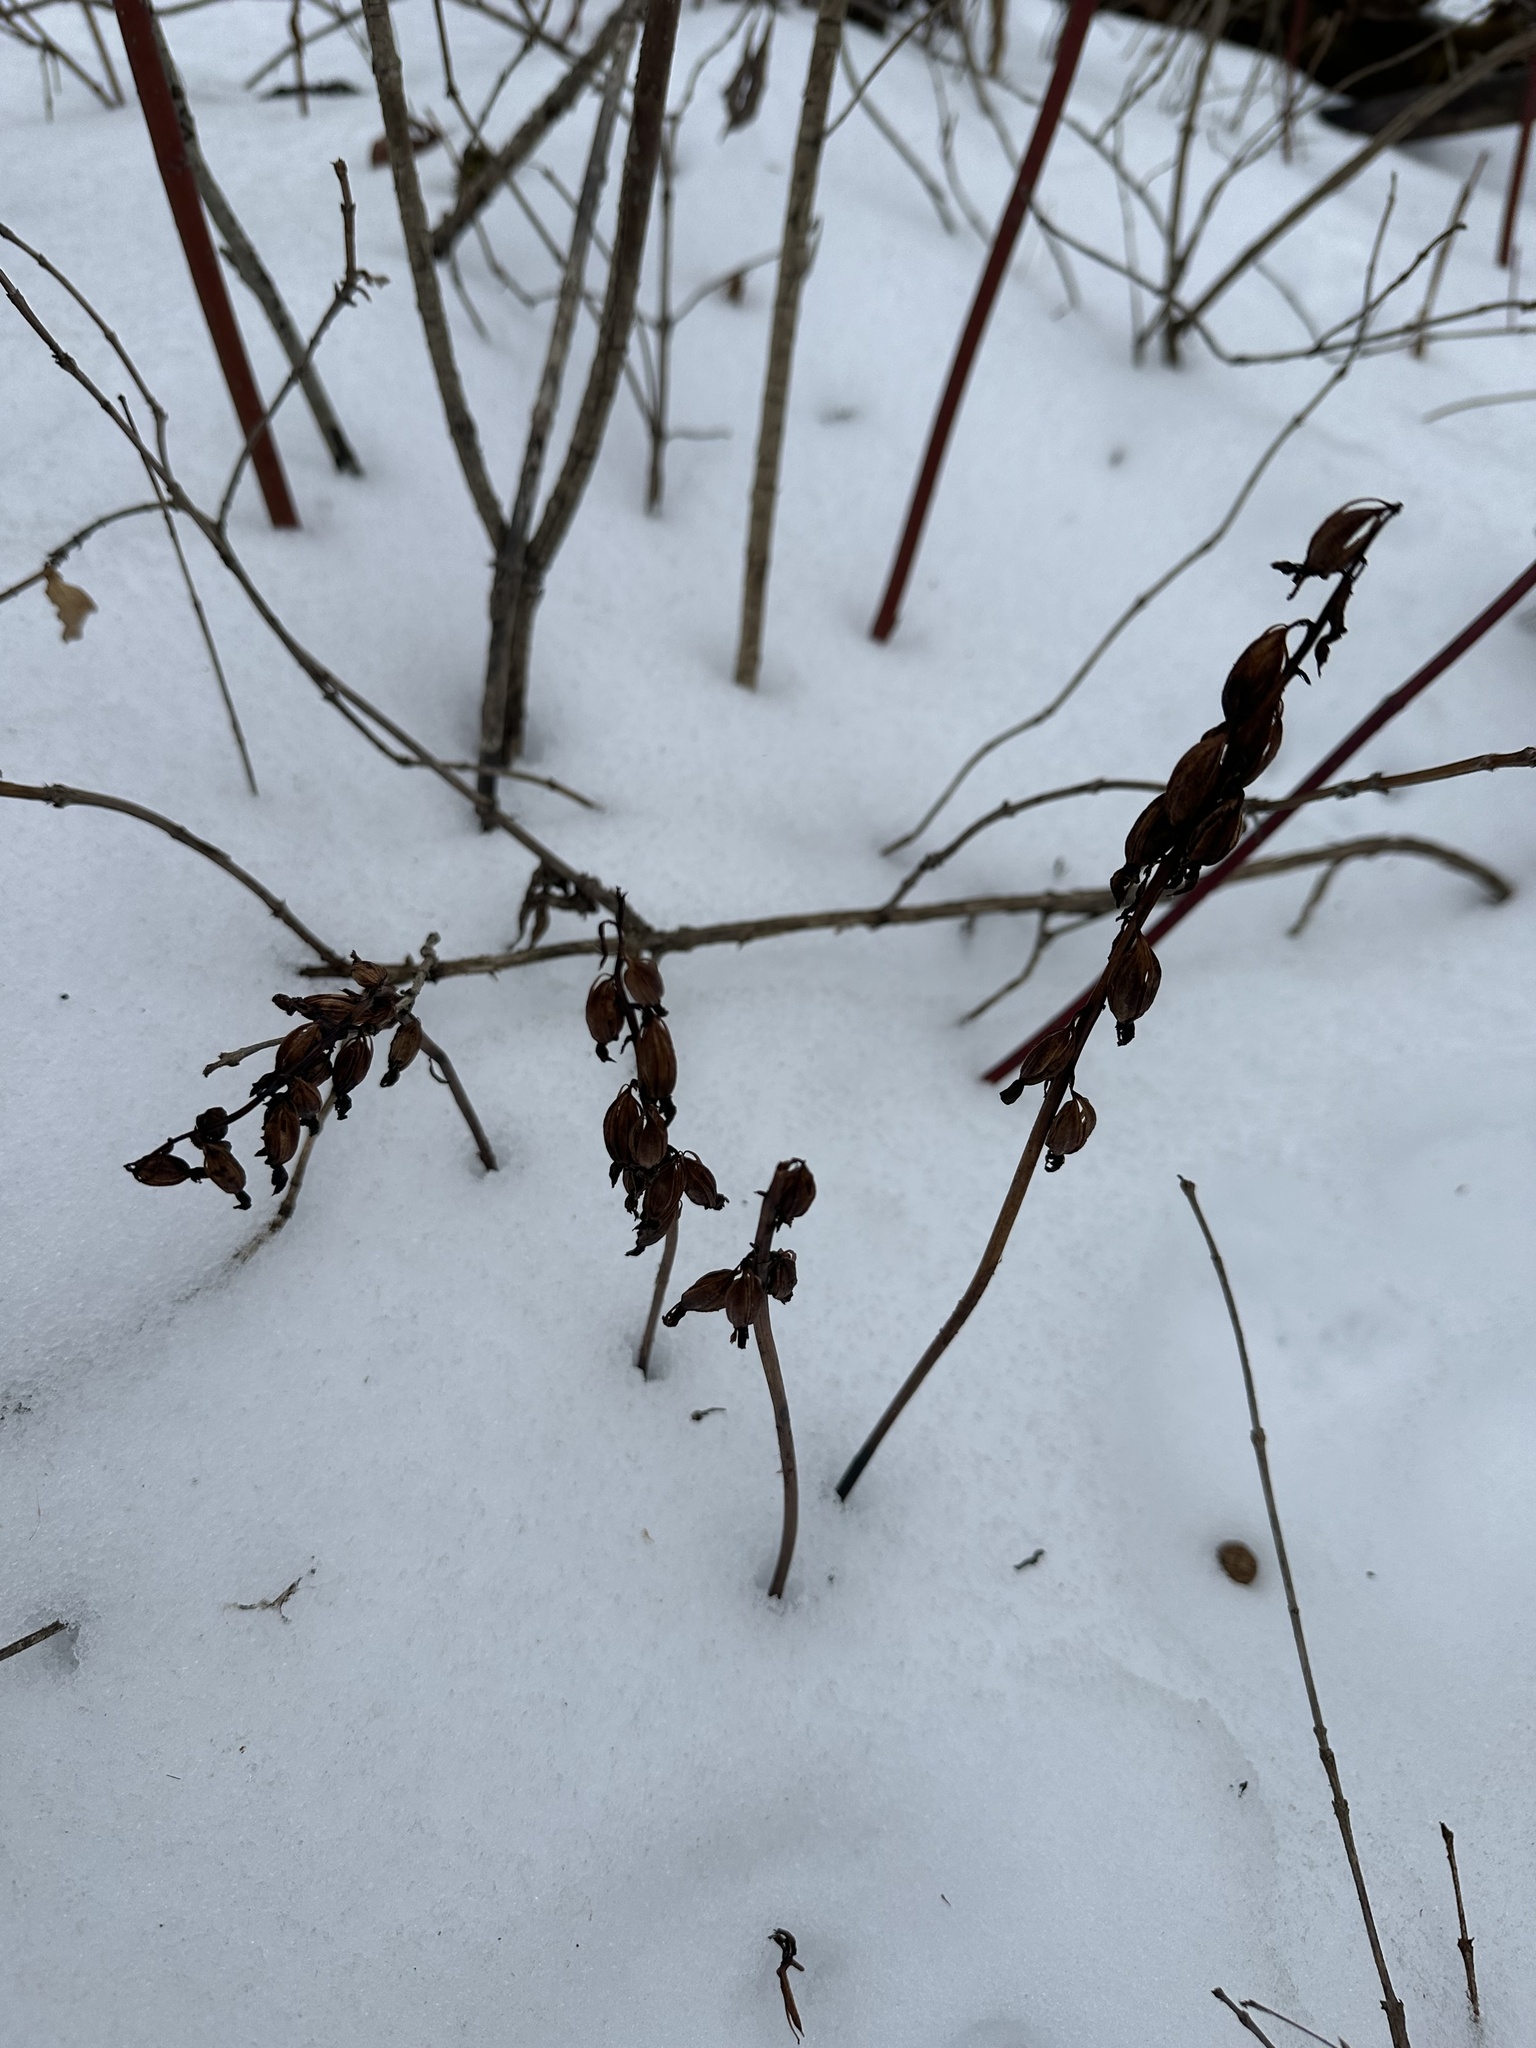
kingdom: Plantae
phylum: Tracheophyta
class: Liliopsida
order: Asparagales
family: Orchidaceae
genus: Corallorhiza
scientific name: Corallorhiza maculata
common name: Spotted coralroot
